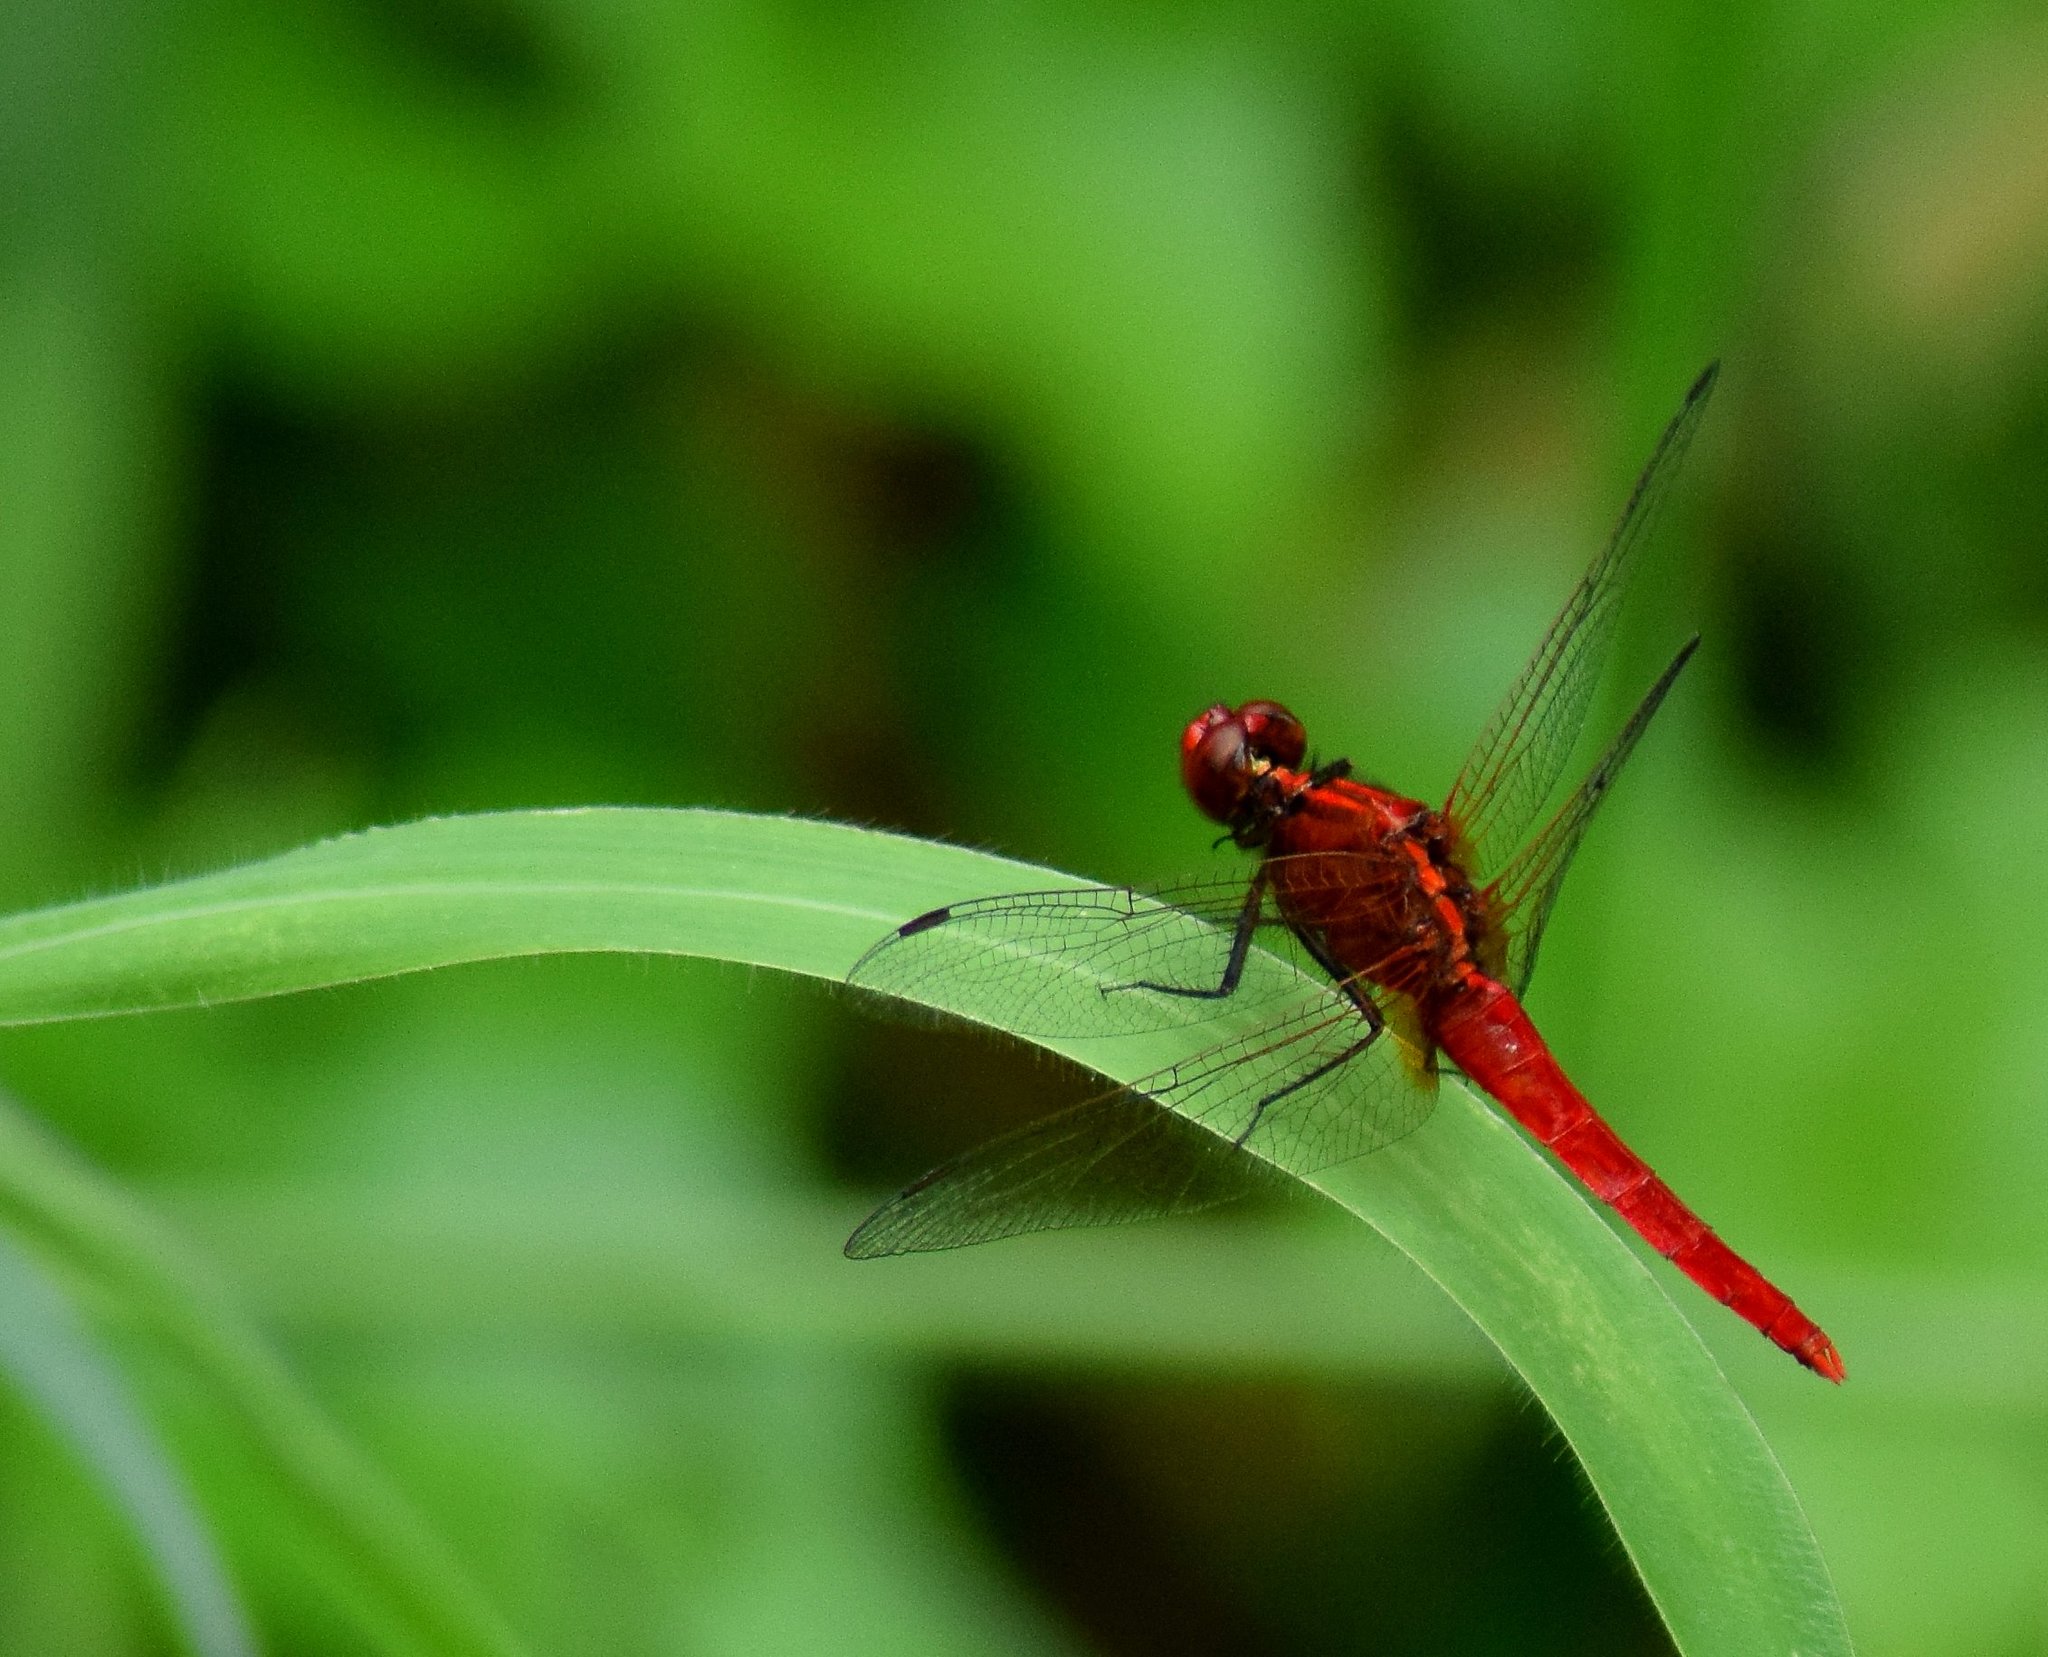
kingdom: Animalia
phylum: Arthropoda
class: Insecta
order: Odonata
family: Libellulidae
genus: Rhodothemis
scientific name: Rhodothemis rufa
